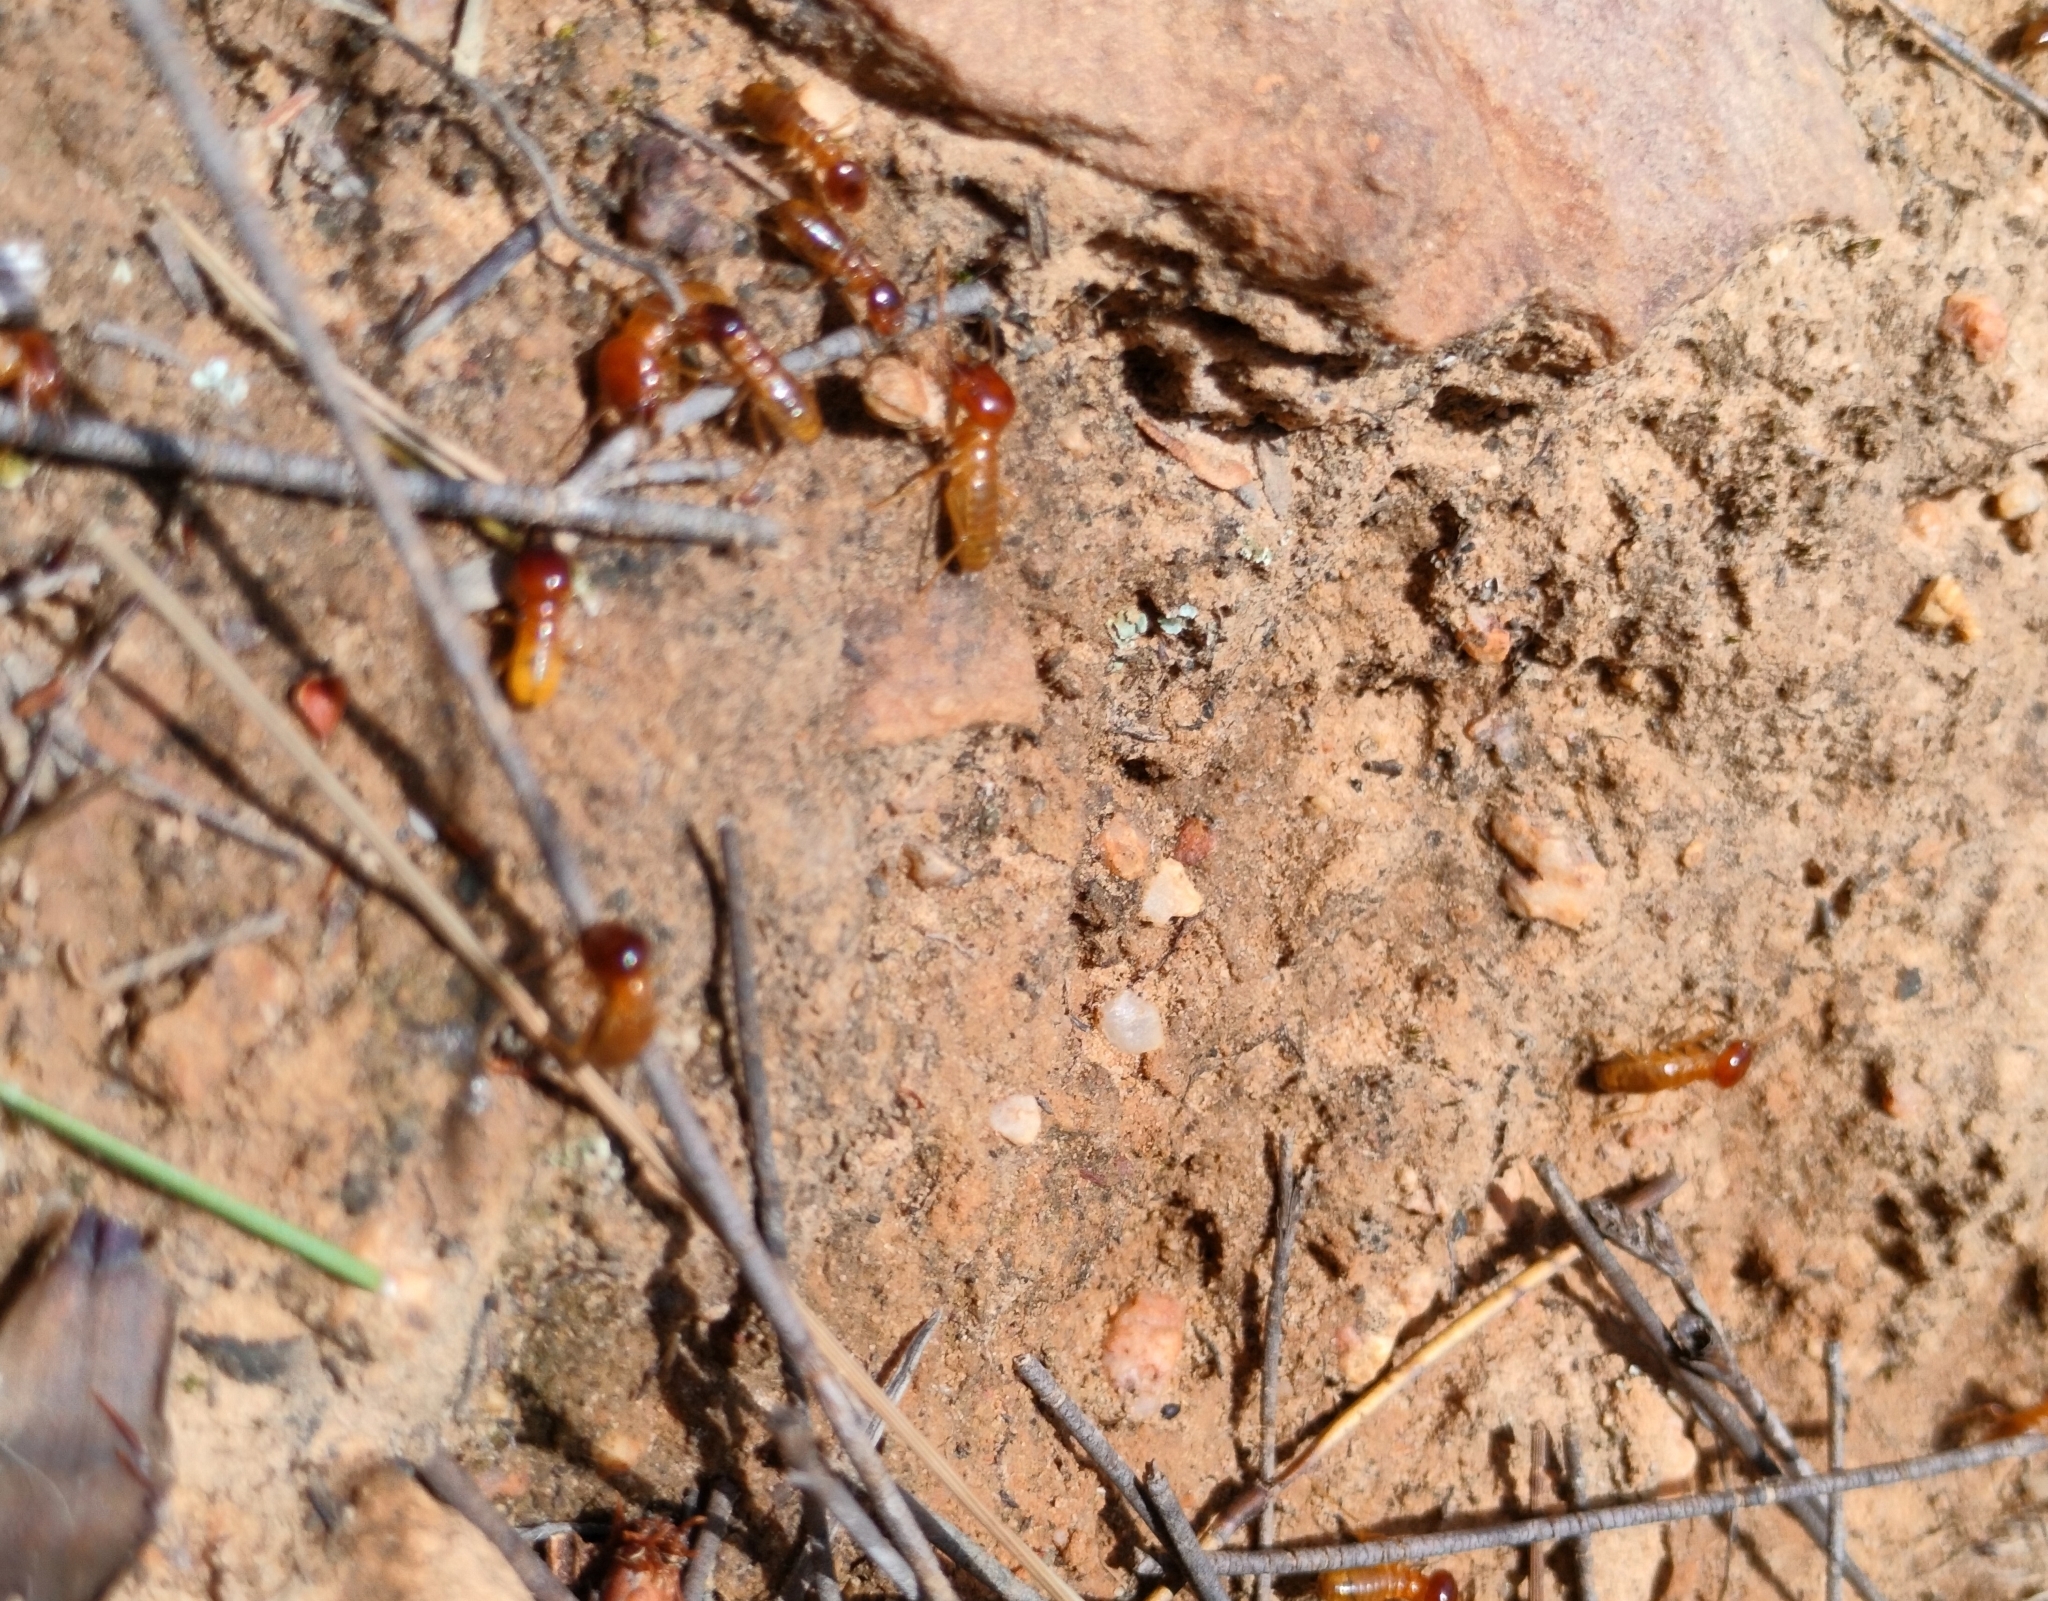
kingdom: Animalia
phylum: Arthropoda
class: Insecta
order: Blattodea
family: Hodotermitidae
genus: Microhodotermes
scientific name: Microhodotermes viator
